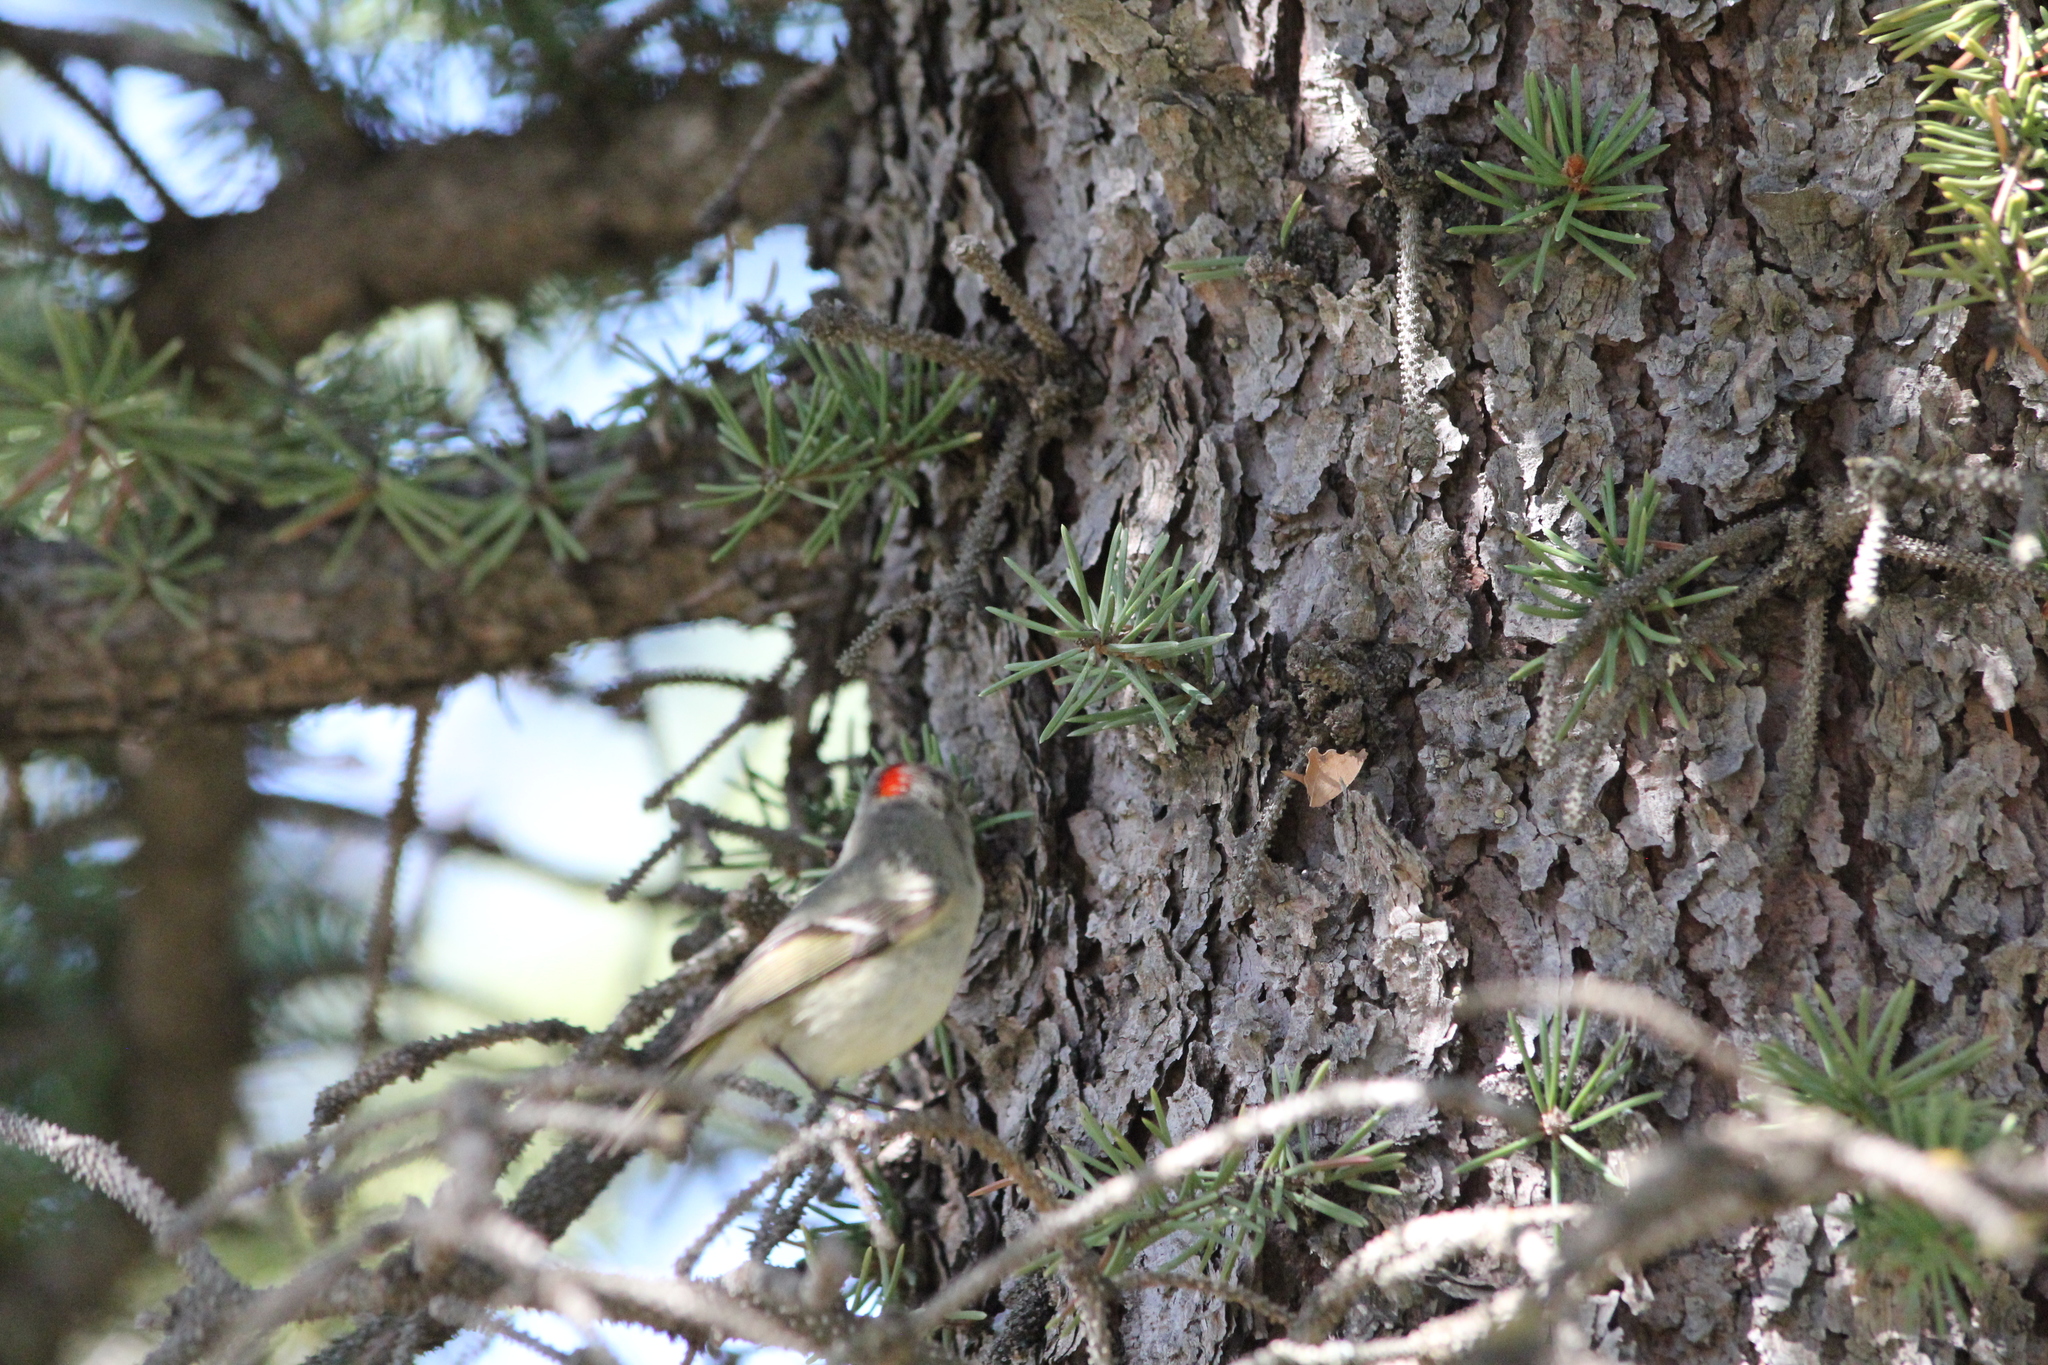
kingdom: Animalia
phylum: Chordata
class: Aves
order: Passeriformes
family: Regulidae
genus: Regulus
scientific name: Regulus calendula
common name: Ruby-crowned kinglet
